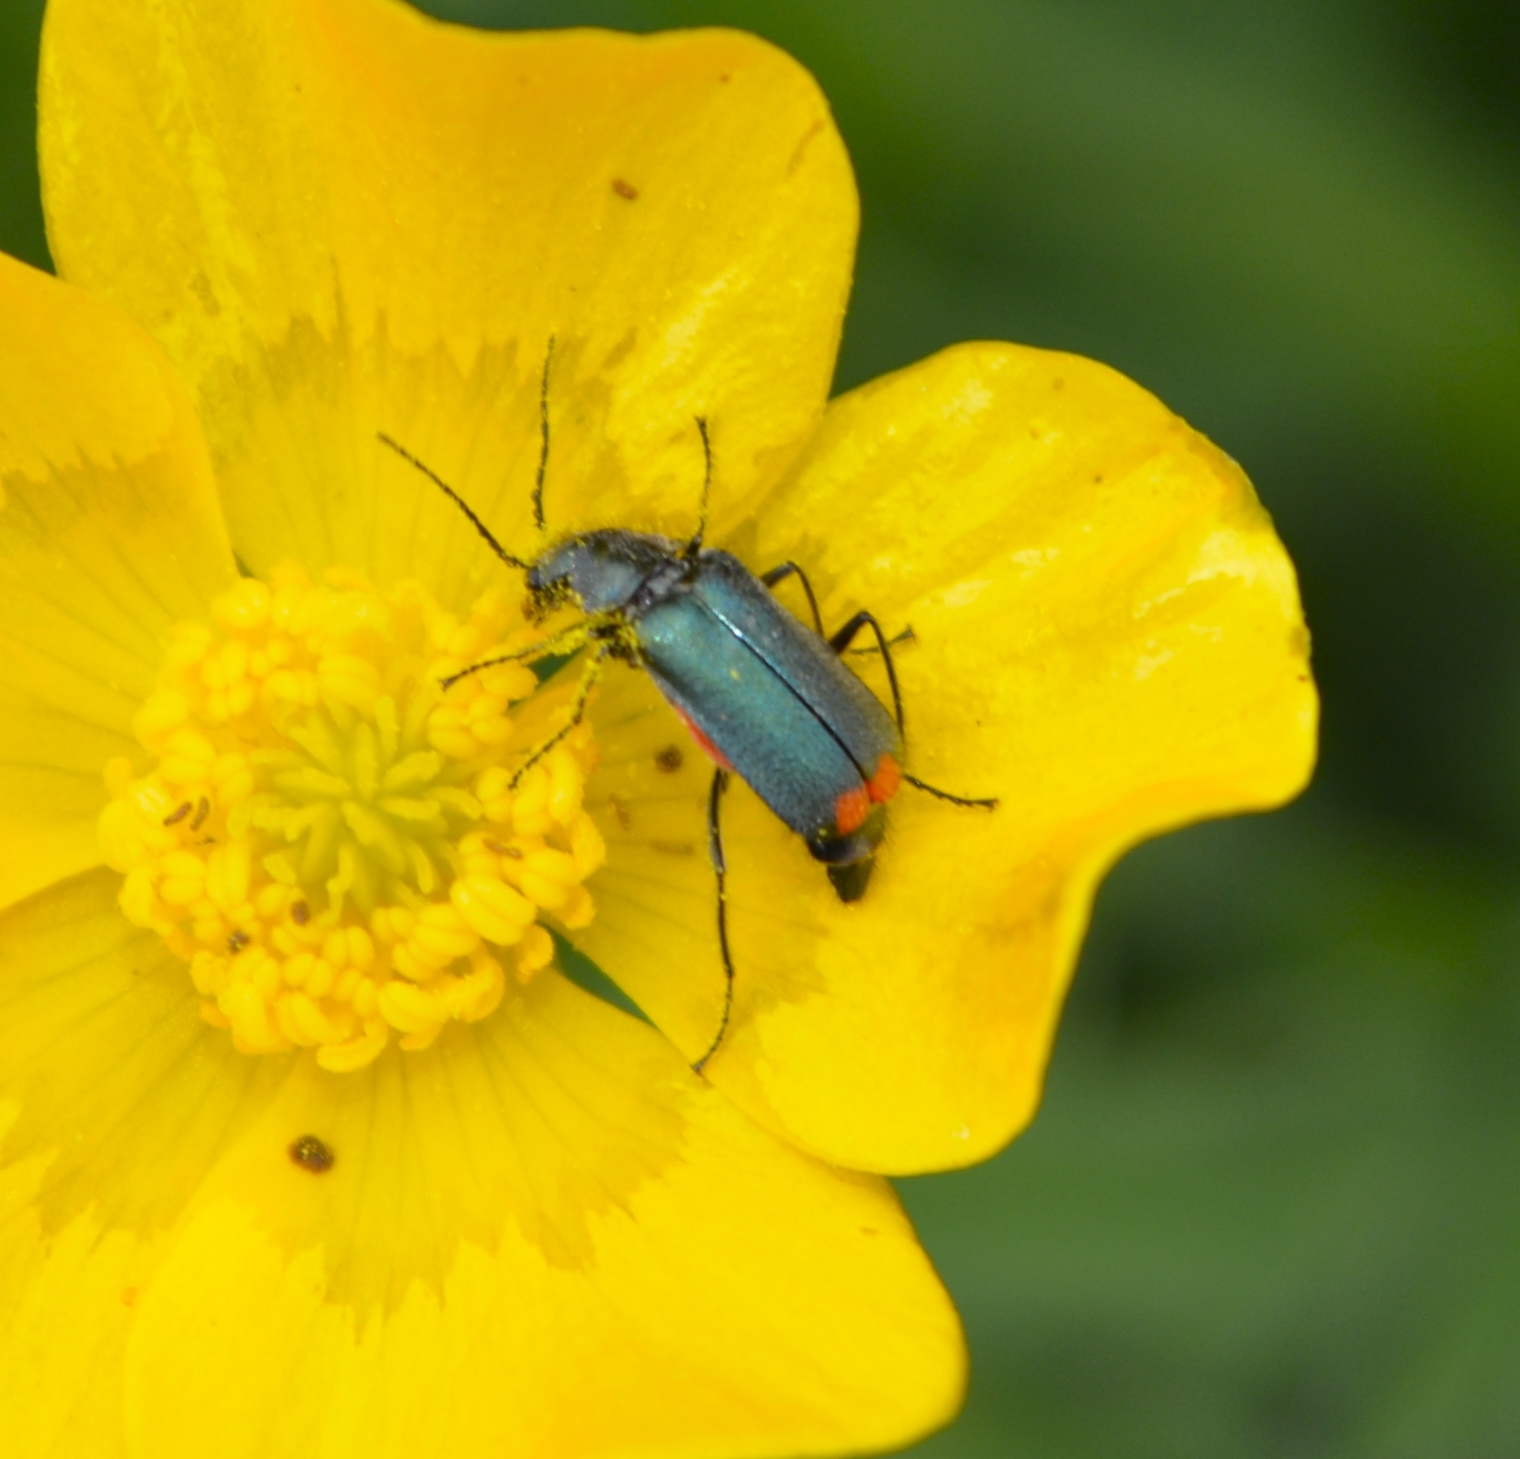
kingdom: Animalia
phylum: Arthropoda
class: Insecta
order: Coleoptera
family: Melyridae
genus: Malachius
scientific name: Malachius bipustulatus
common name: Malachite beetle
